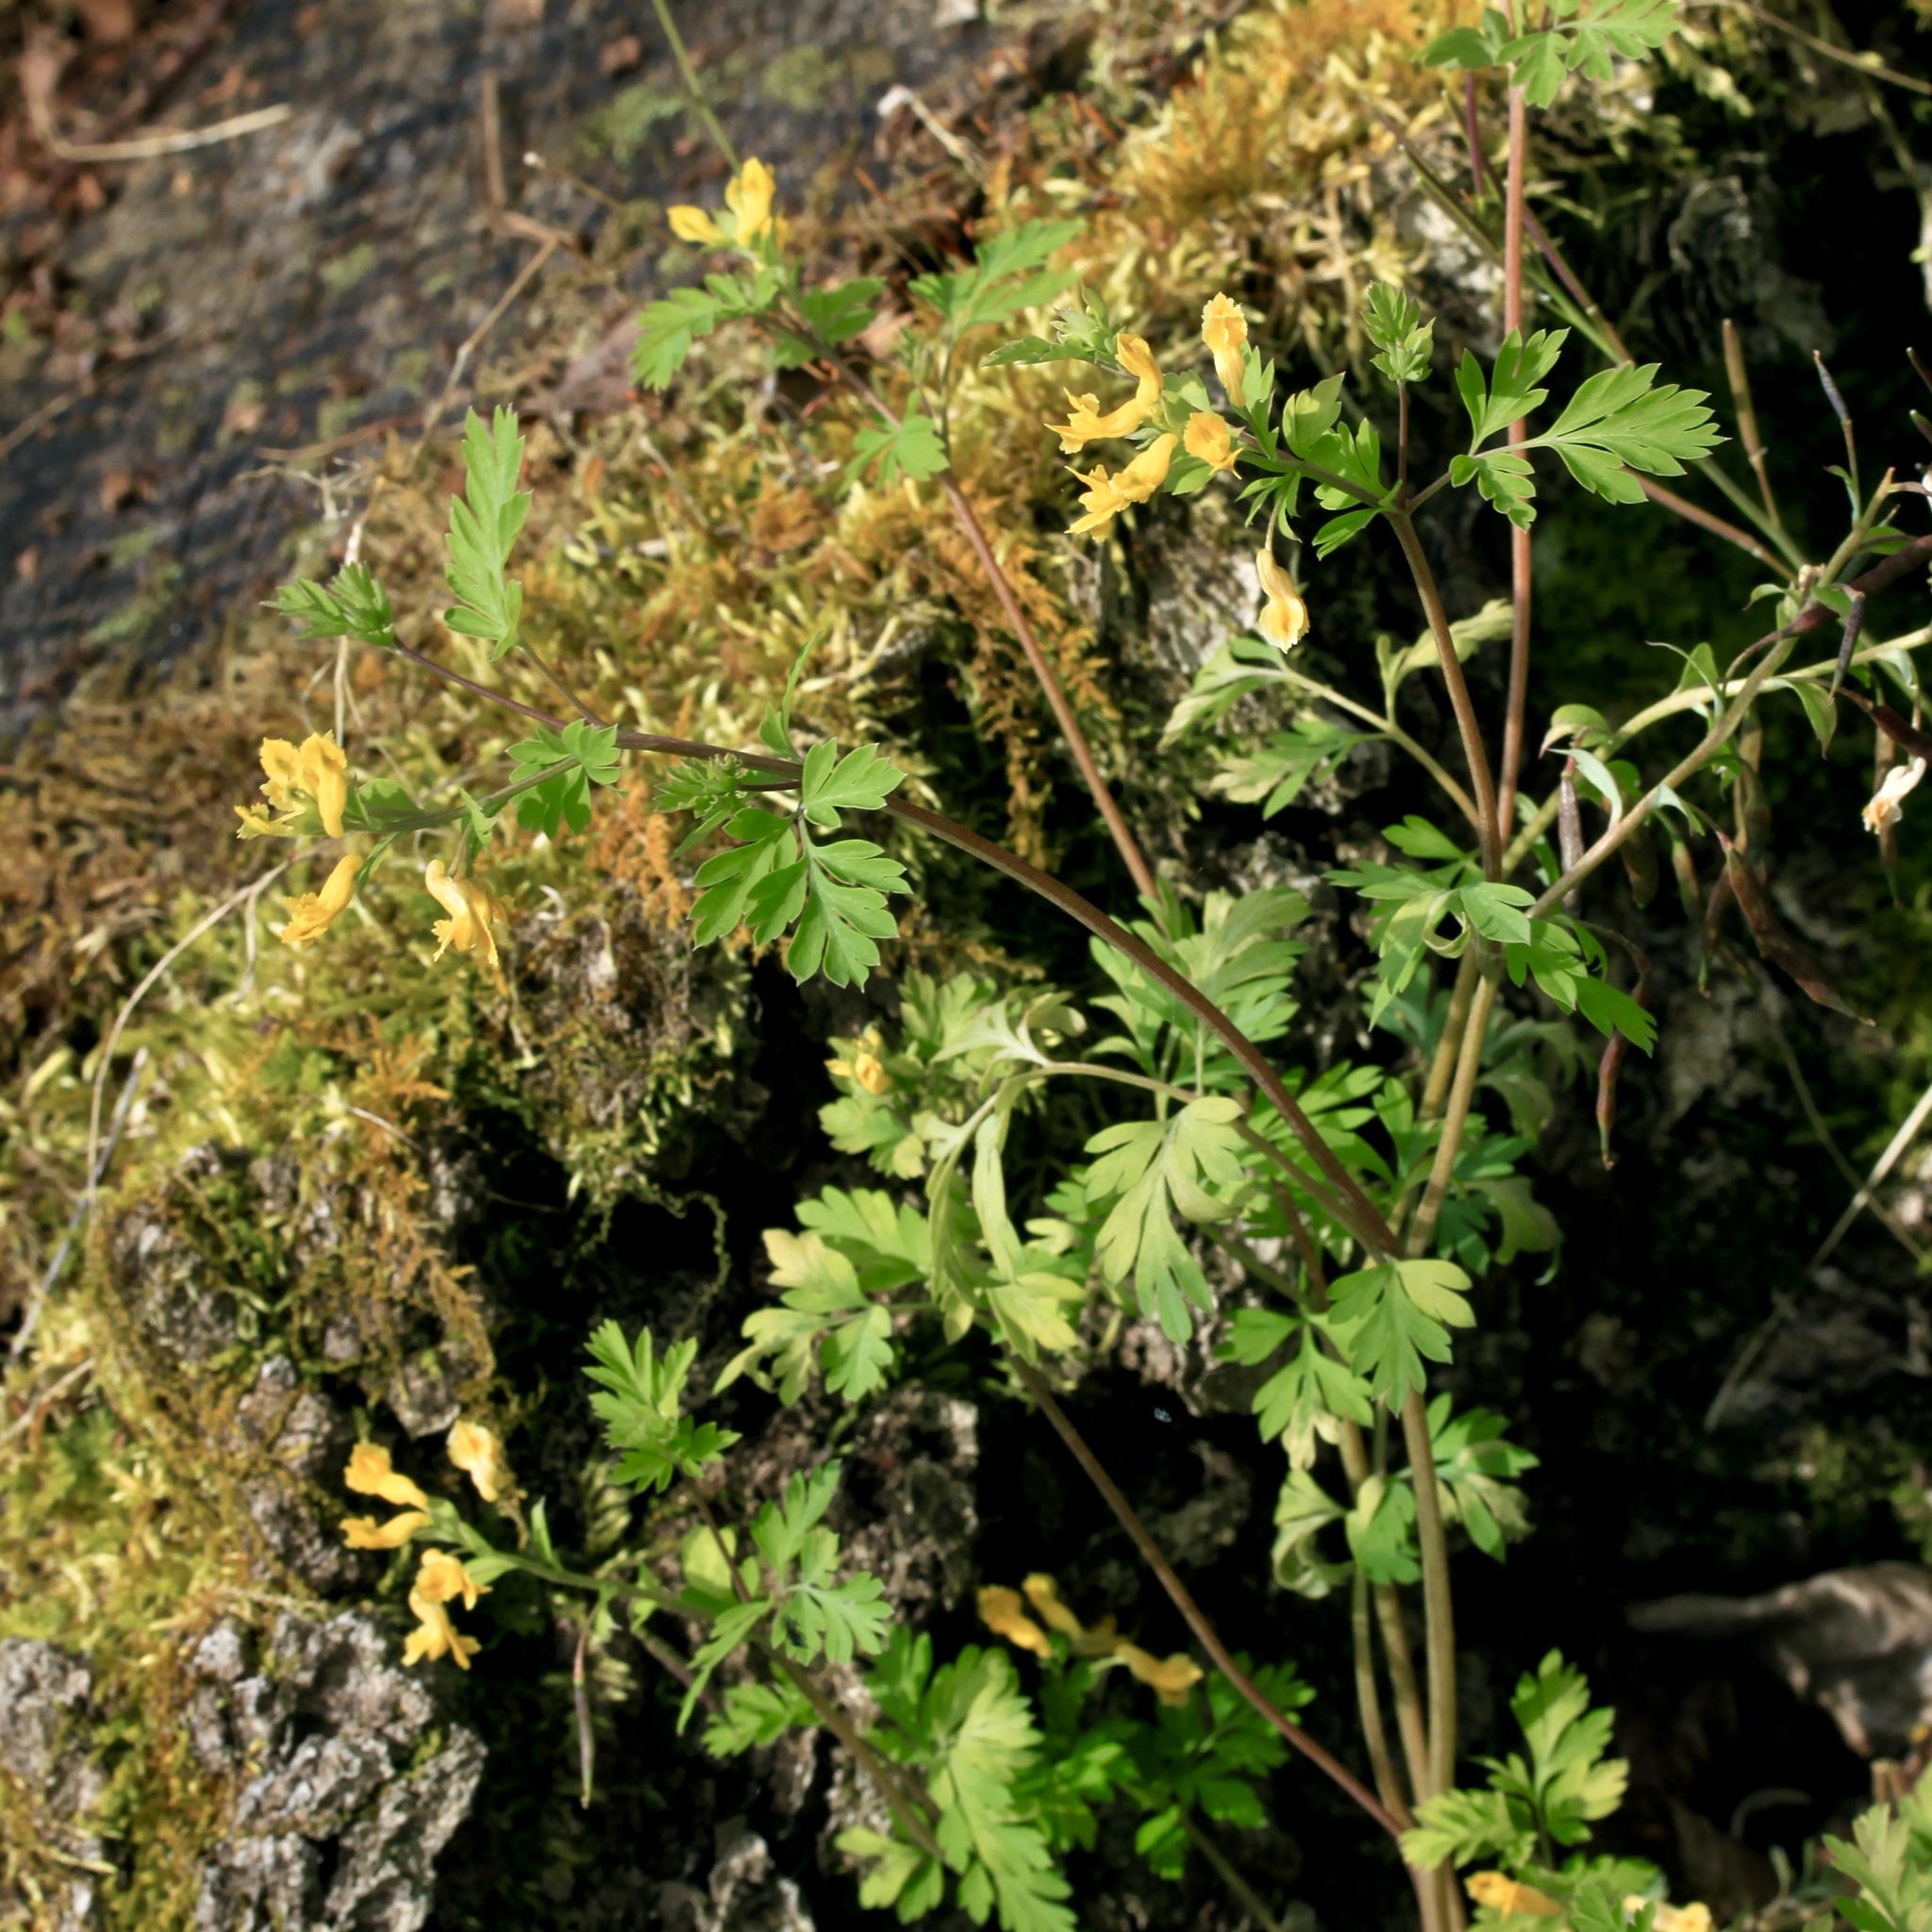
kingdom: Plantae
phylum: Tracheophyta
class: Magnoliopsida
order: Ranunculales
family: Papaveraceae
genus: Corydalis
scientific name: Corydalis flavula
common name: Yellow corydalis
